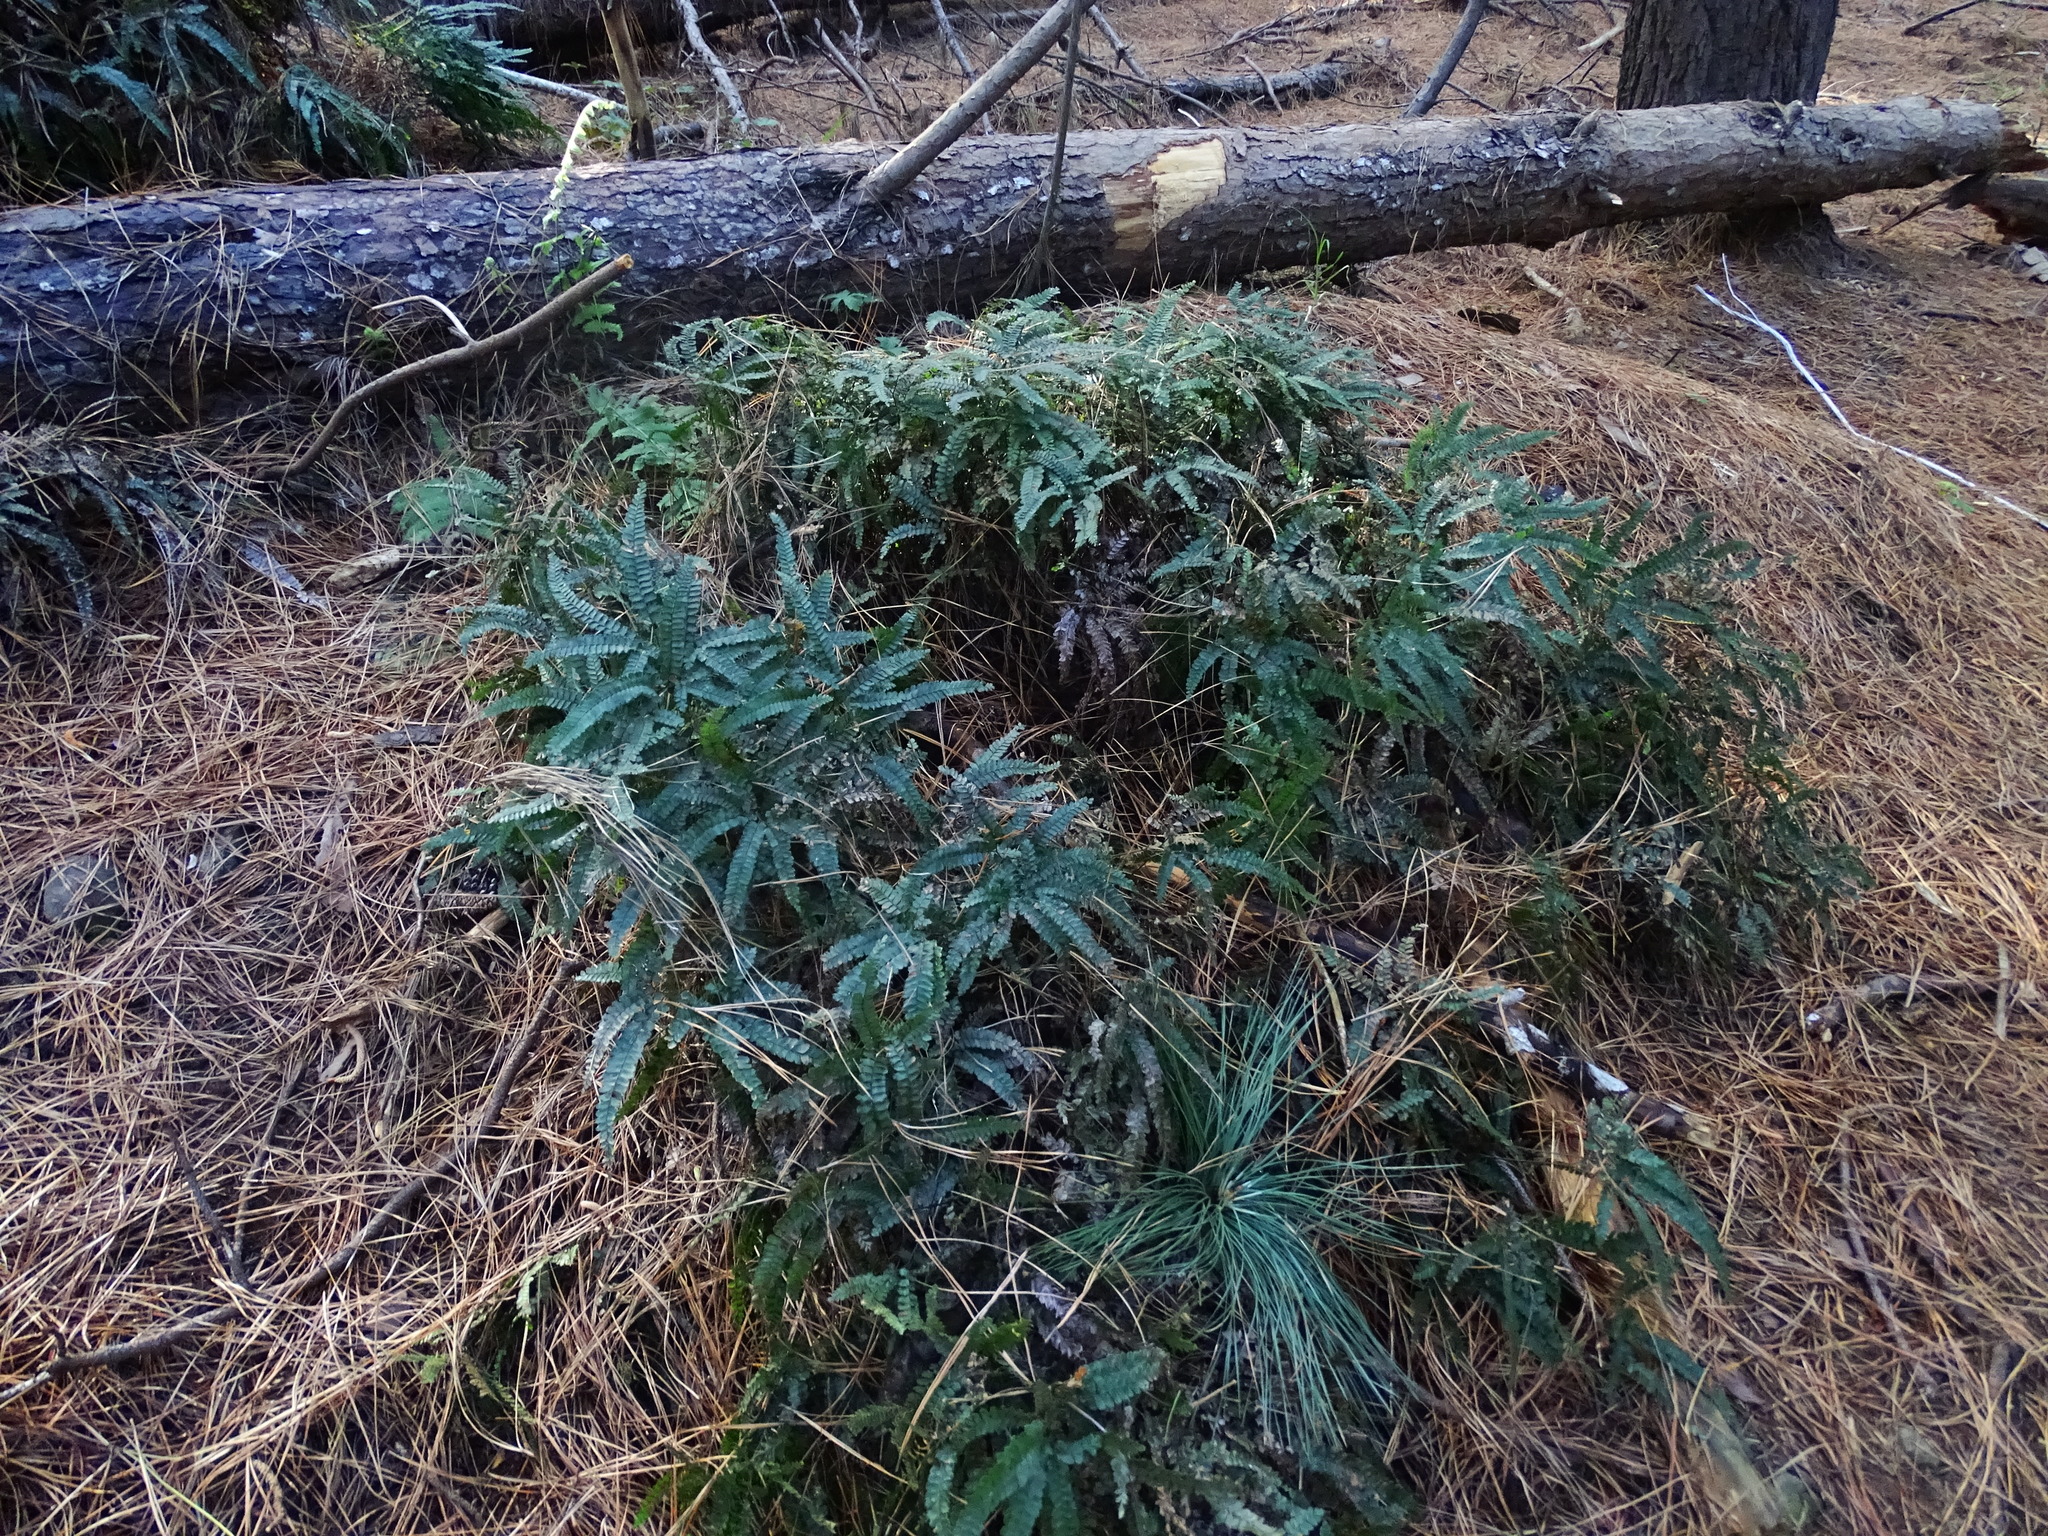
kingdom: Plantae
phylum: Tracheophyta
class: Polypodiopsida
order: Polypodiales
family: Pteridaceae
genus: Adiantum
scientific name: Adiantum hispidulum
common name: Rough maidenhair
